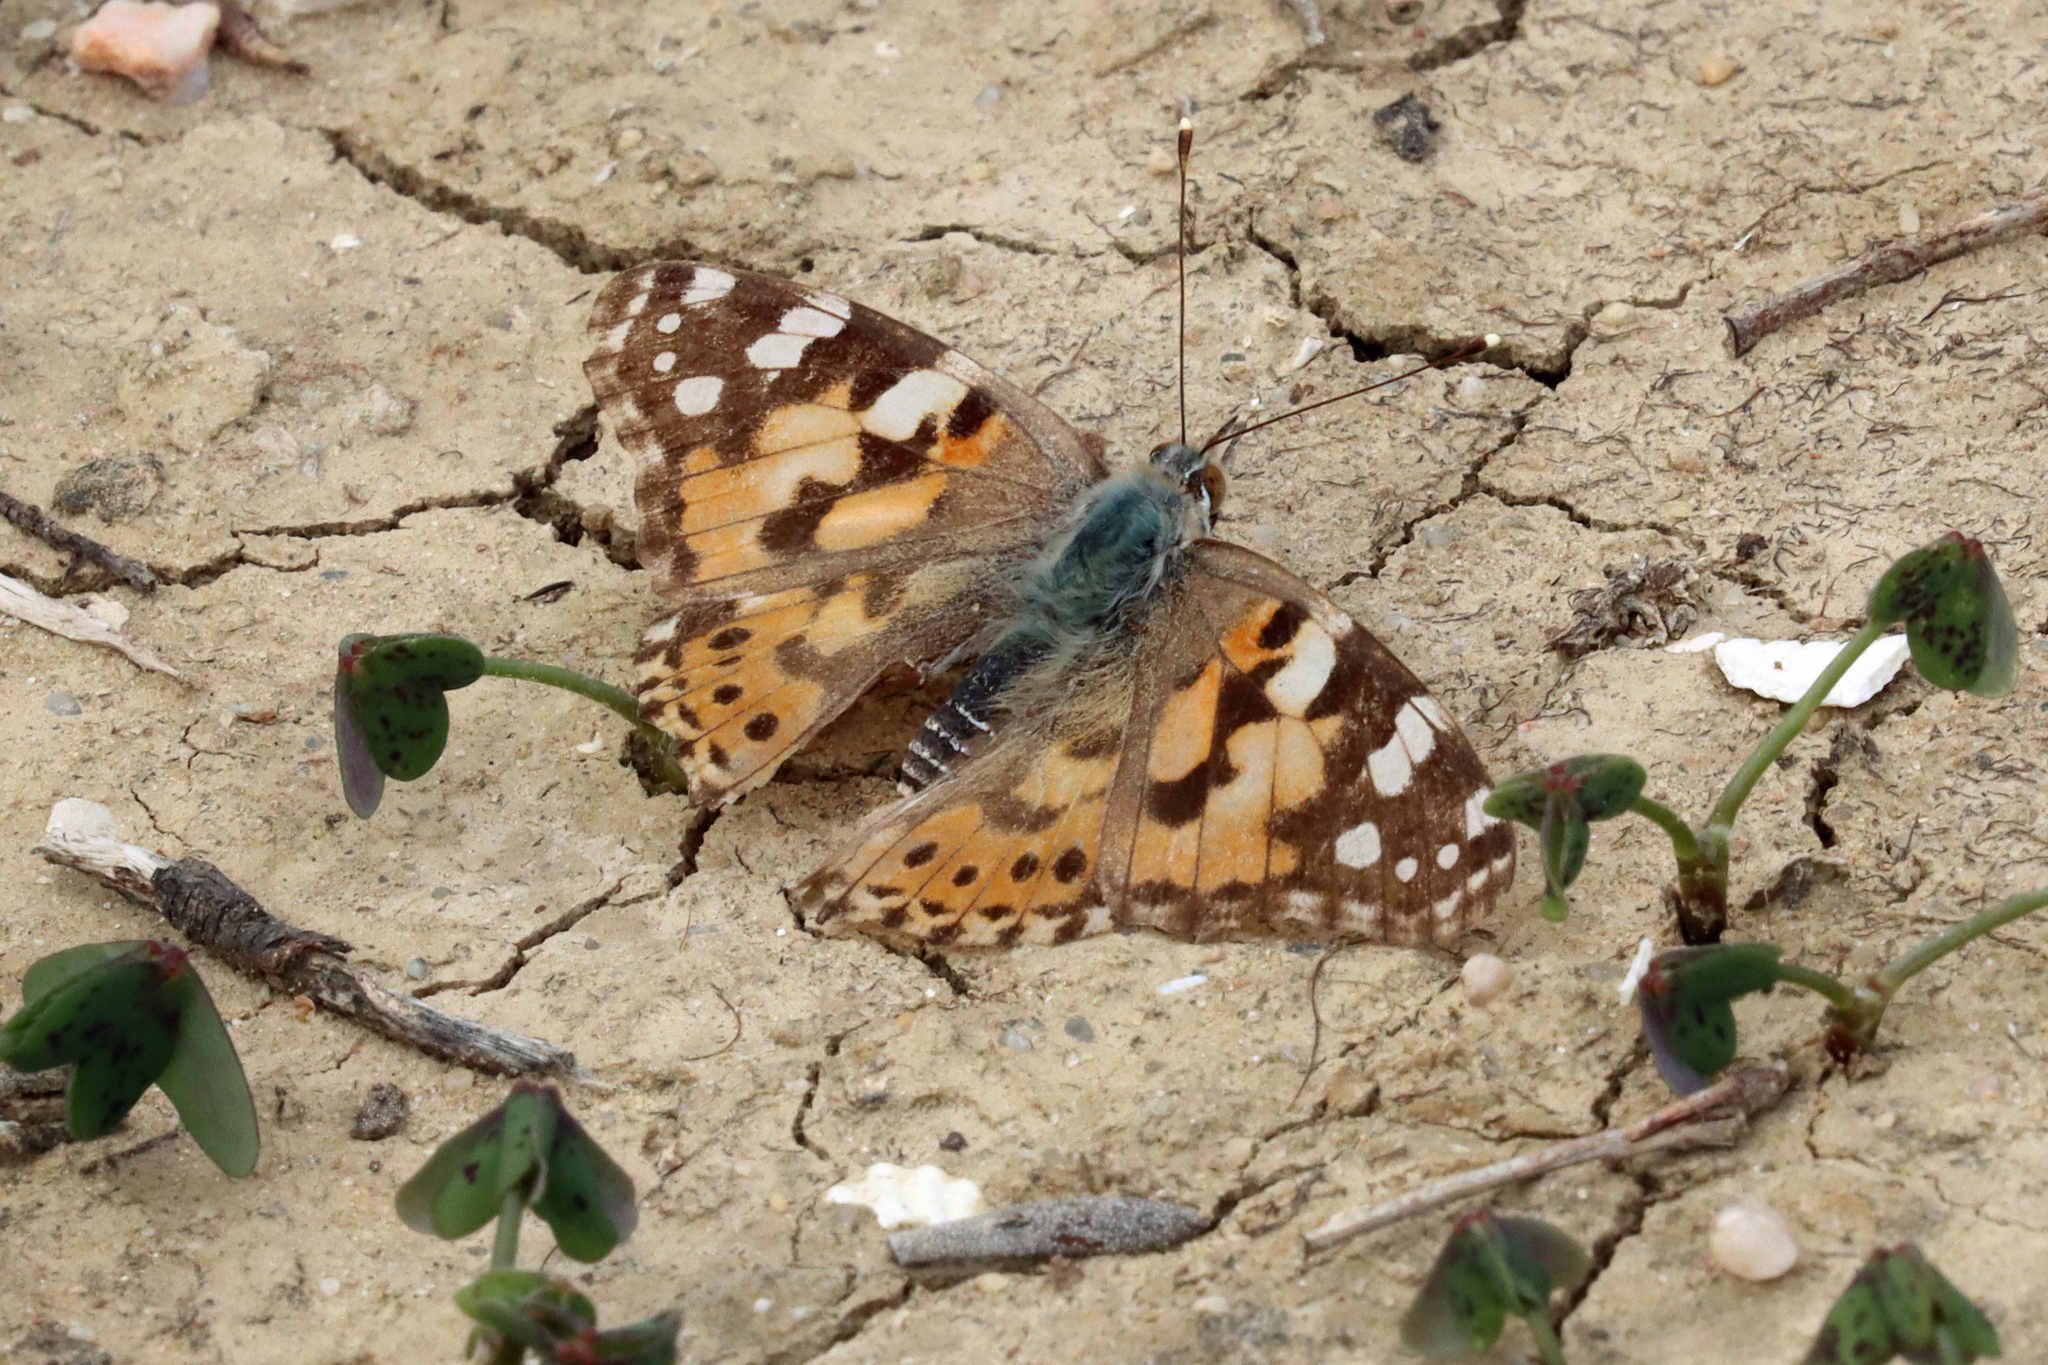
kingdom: Animalia
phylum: Arthropoda
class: Insecta
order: Lepidoptera
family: Nymphalidae
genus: Vanessa
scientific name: Vanessa cardui
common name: Painted lady
